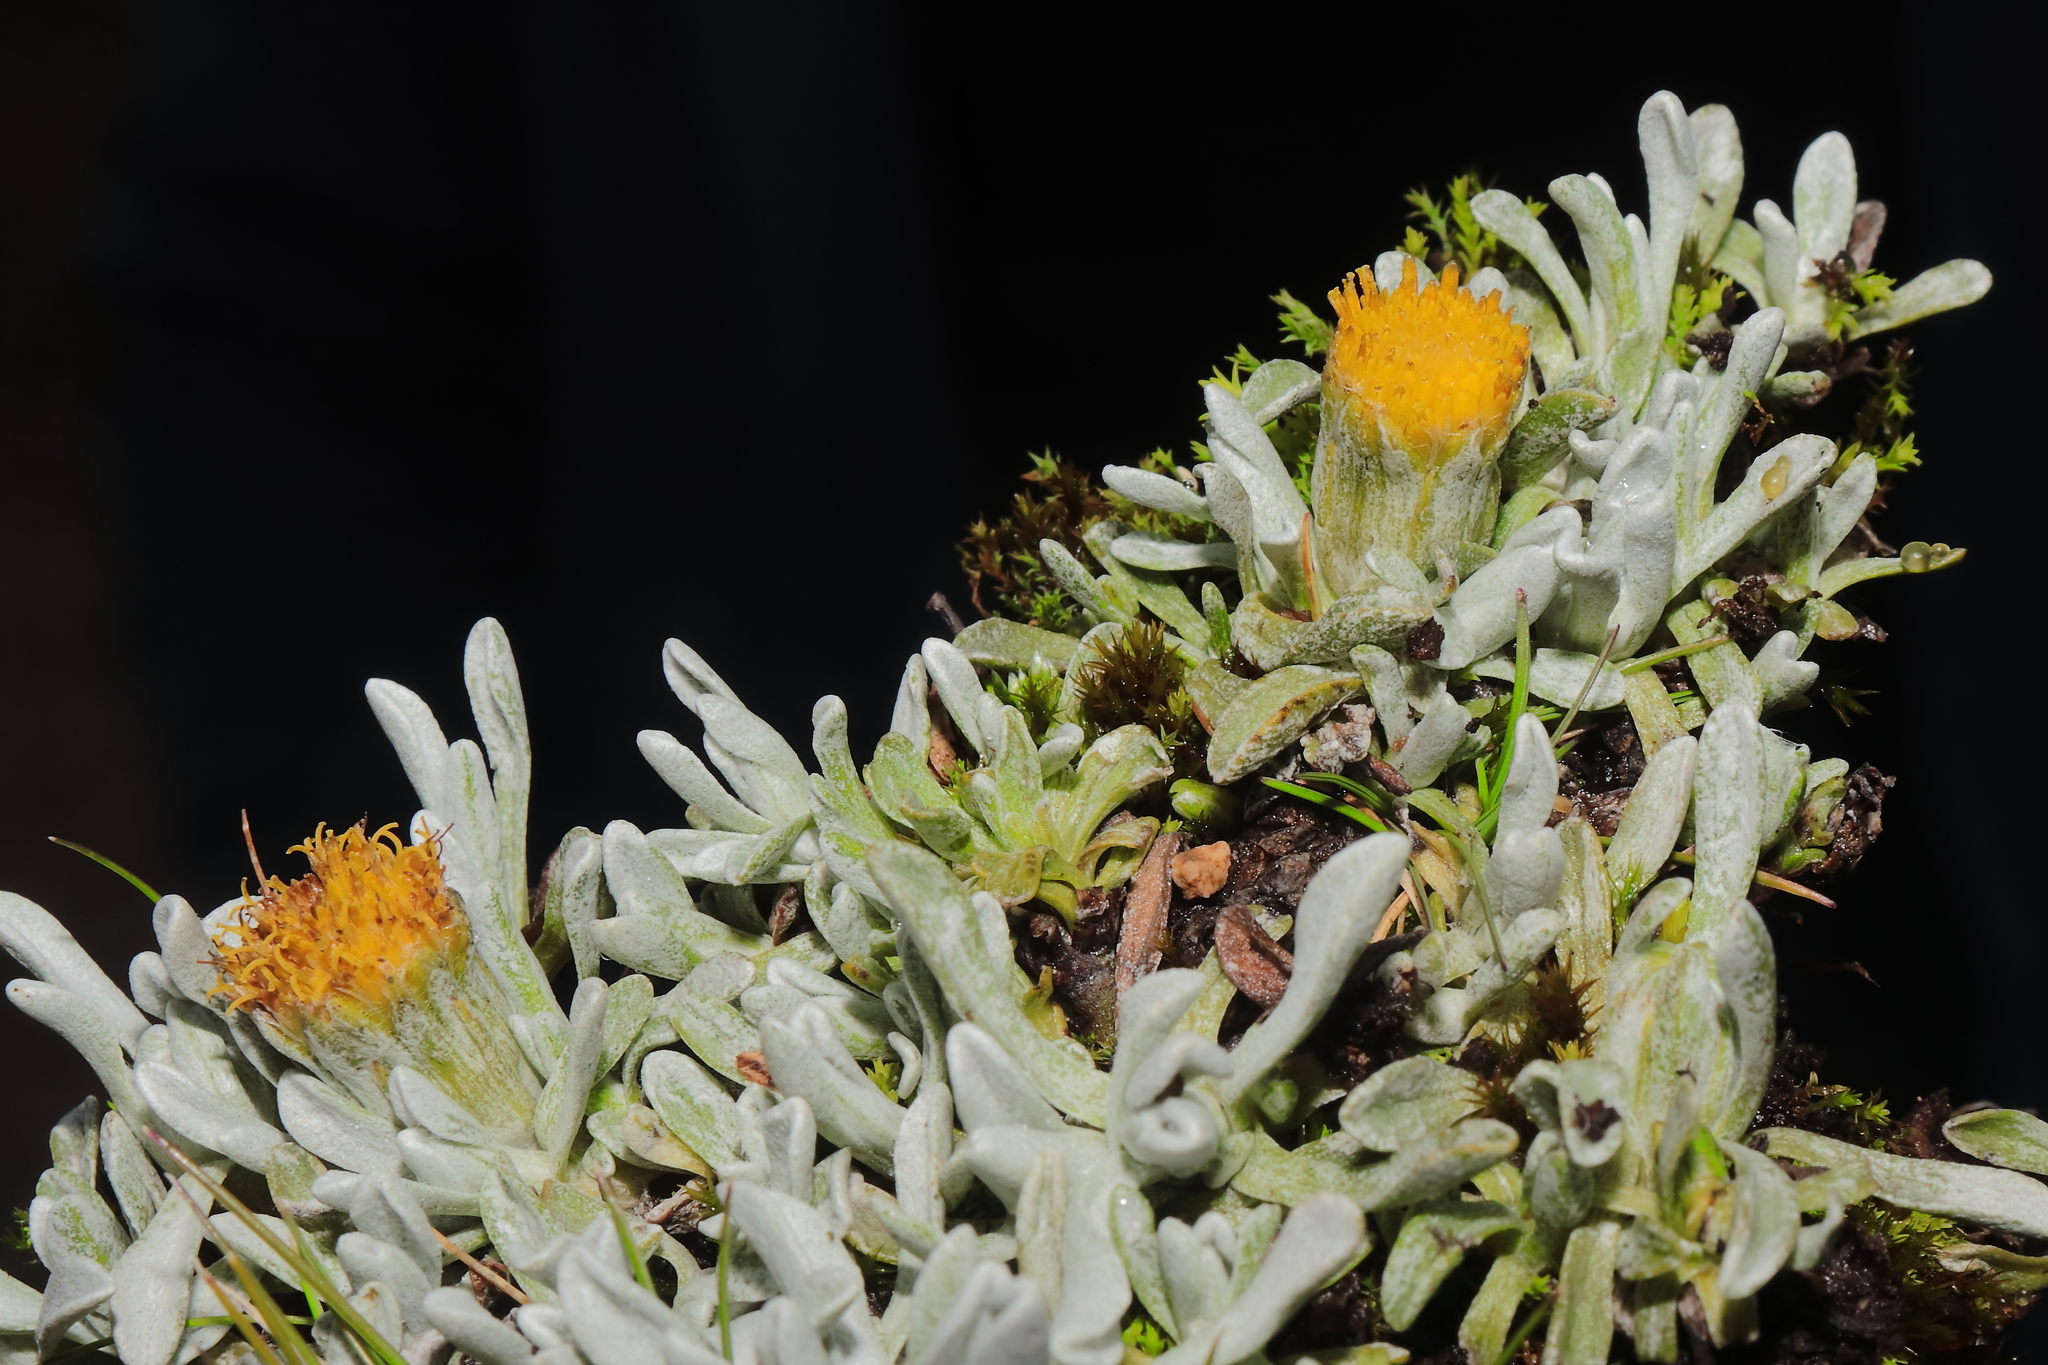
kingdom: Plantae
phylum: Tracheophyta
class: Magnoliopsida
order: Asterales
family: Asteraceae
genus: Senecio
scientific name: Senecio evacoides
